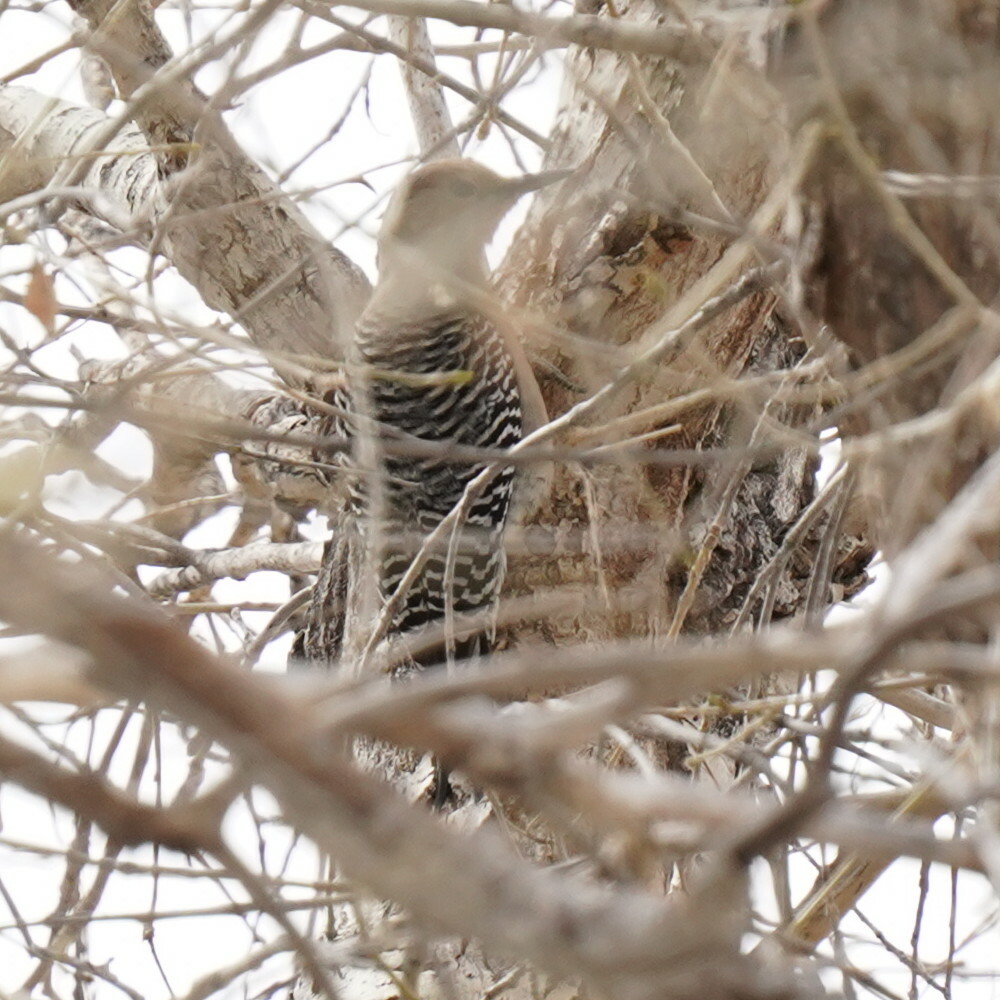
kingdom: Animalia
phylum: Chordata
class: Aves
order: Piciformes
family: Picidae
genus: Melanerpes
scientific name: Melanerpes uropygialis
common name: Gila woodpecker
